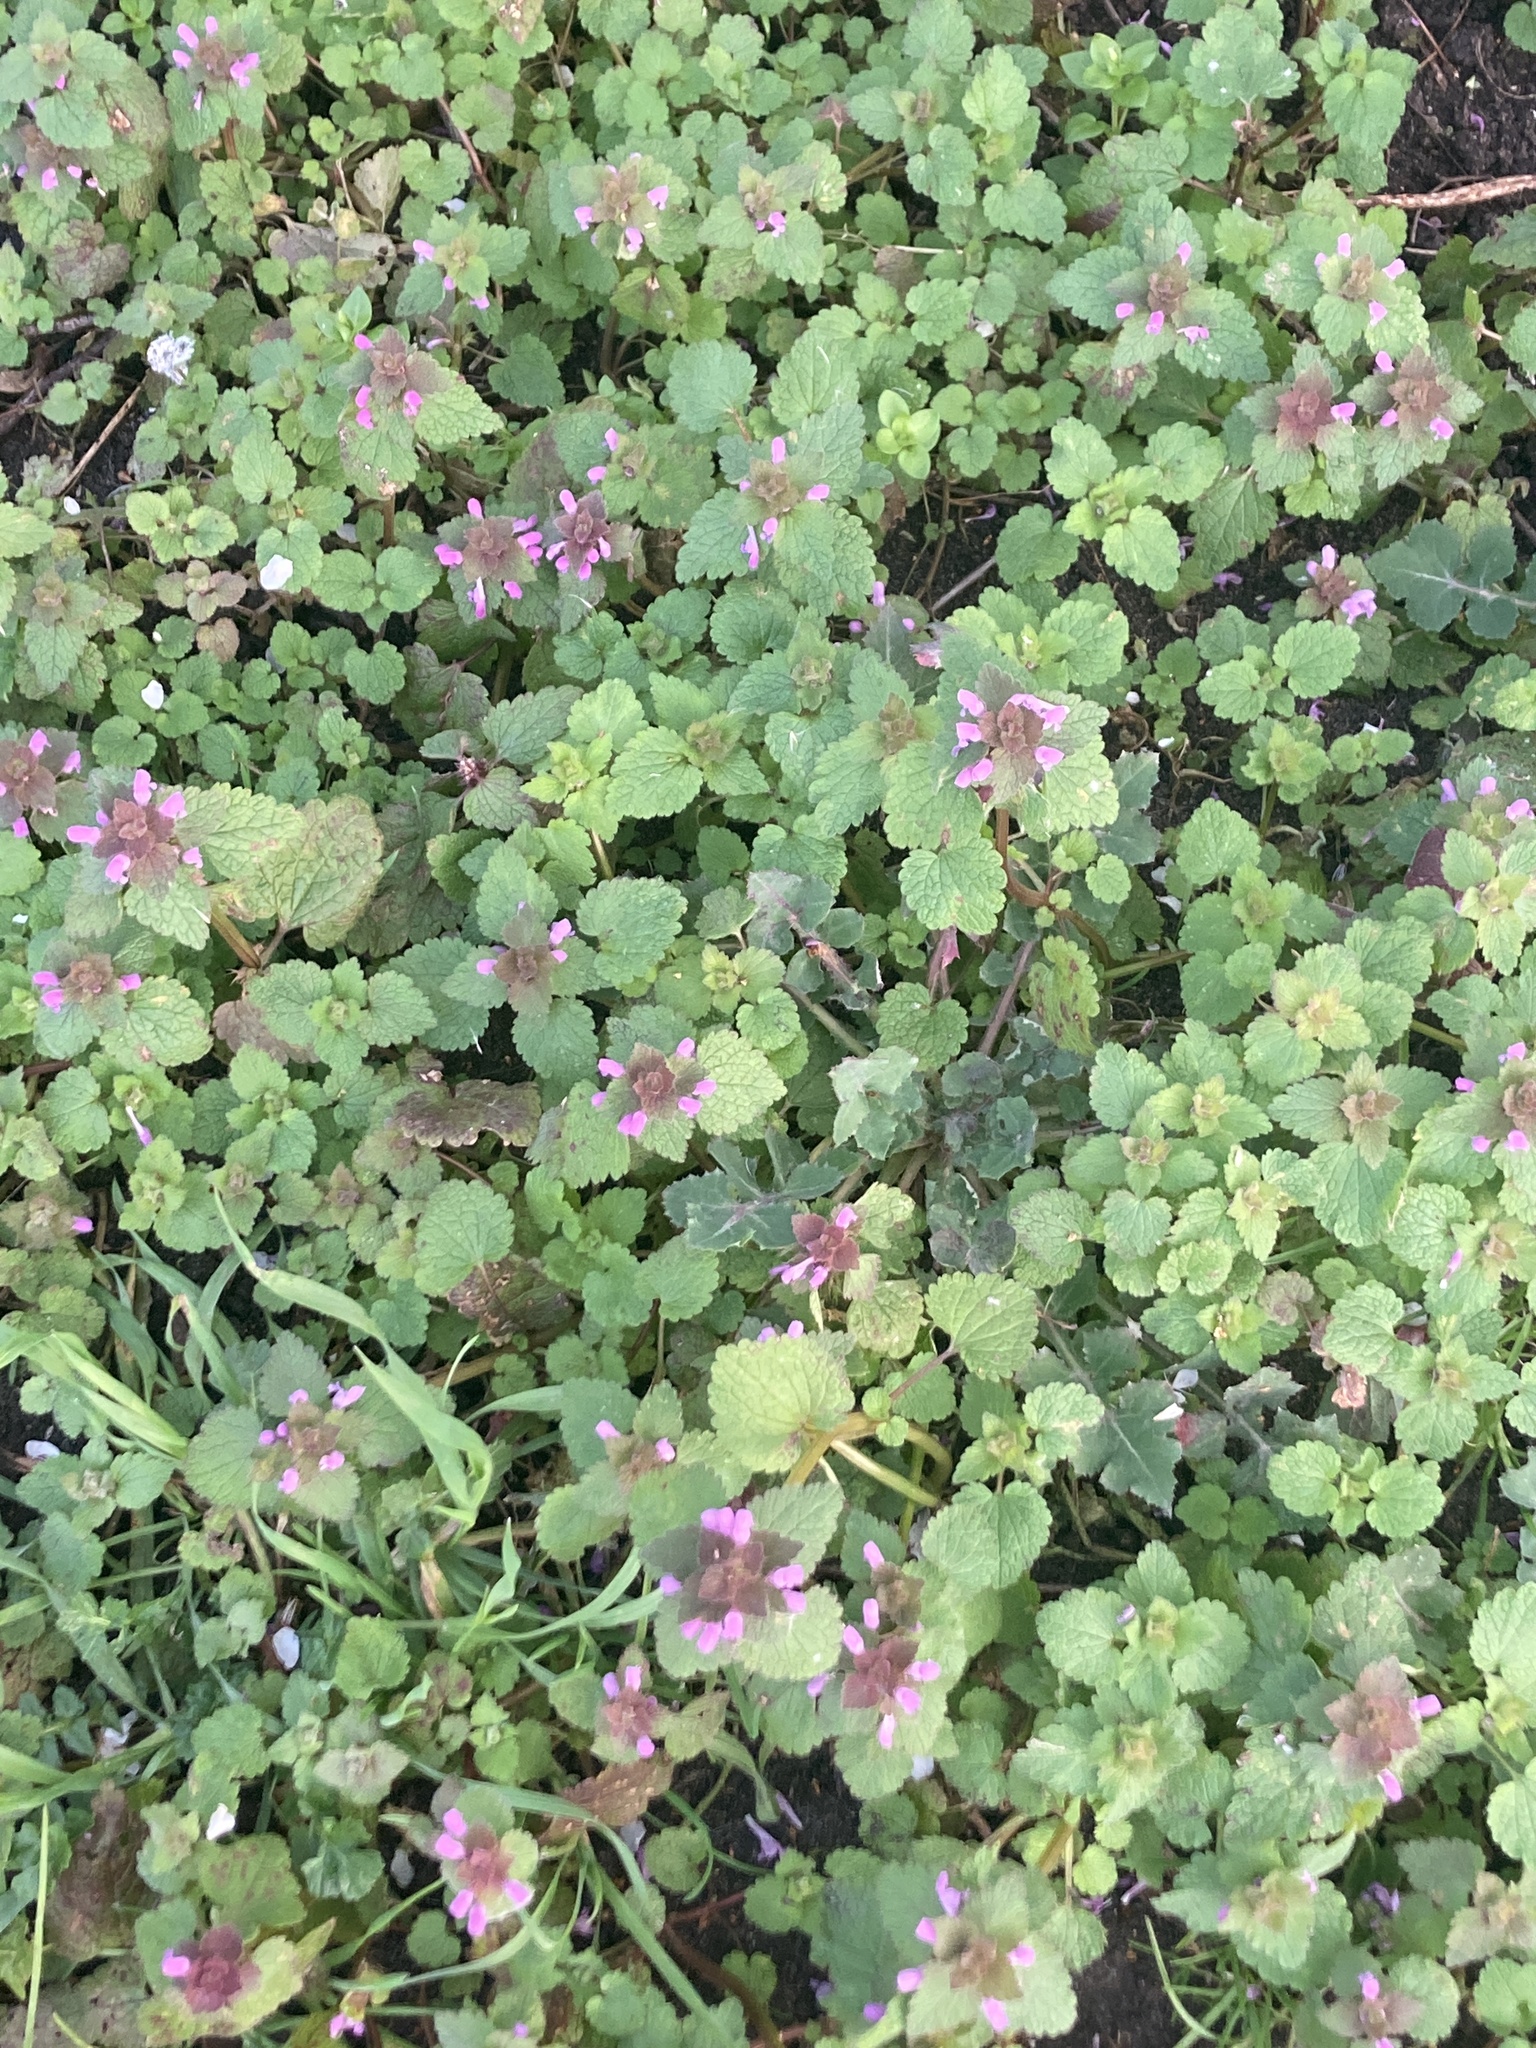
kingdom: Plantae
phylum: Tracheophyta
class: Magnoliopsida
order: Lamiales
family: Lamiaceae
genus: Lamium
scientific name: Lamium purpureum
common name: Red dead-nettle
